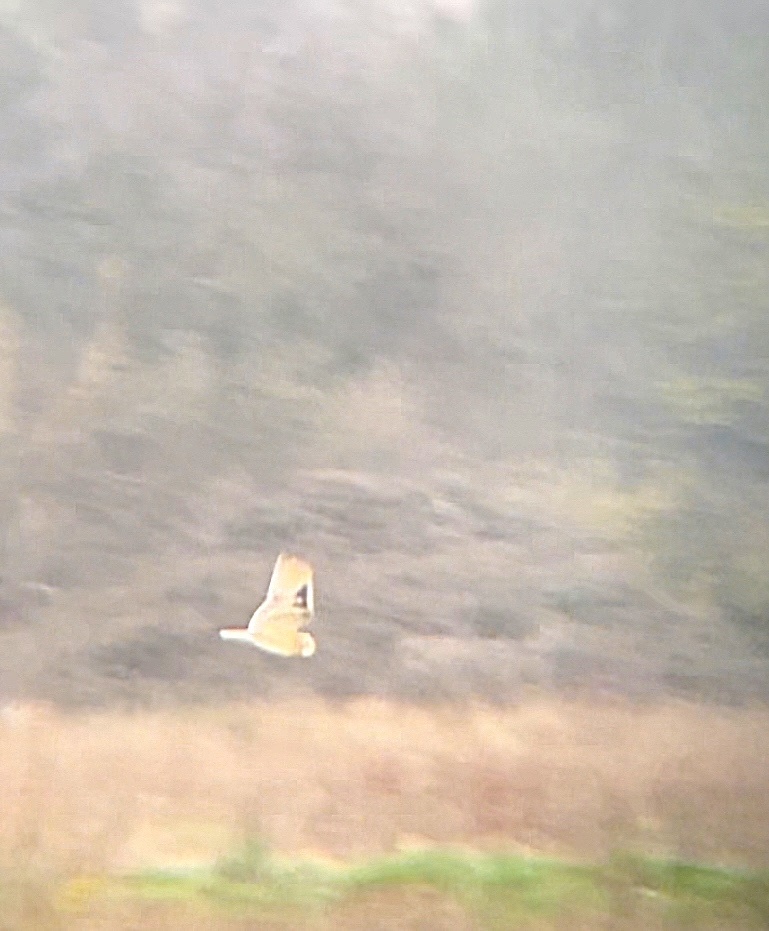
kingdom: Animalia
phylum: Chordata
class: Aves
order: Strigiformes
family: Strigidae
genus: Asio
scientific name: Asio flammeus
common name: Short-eared owl
